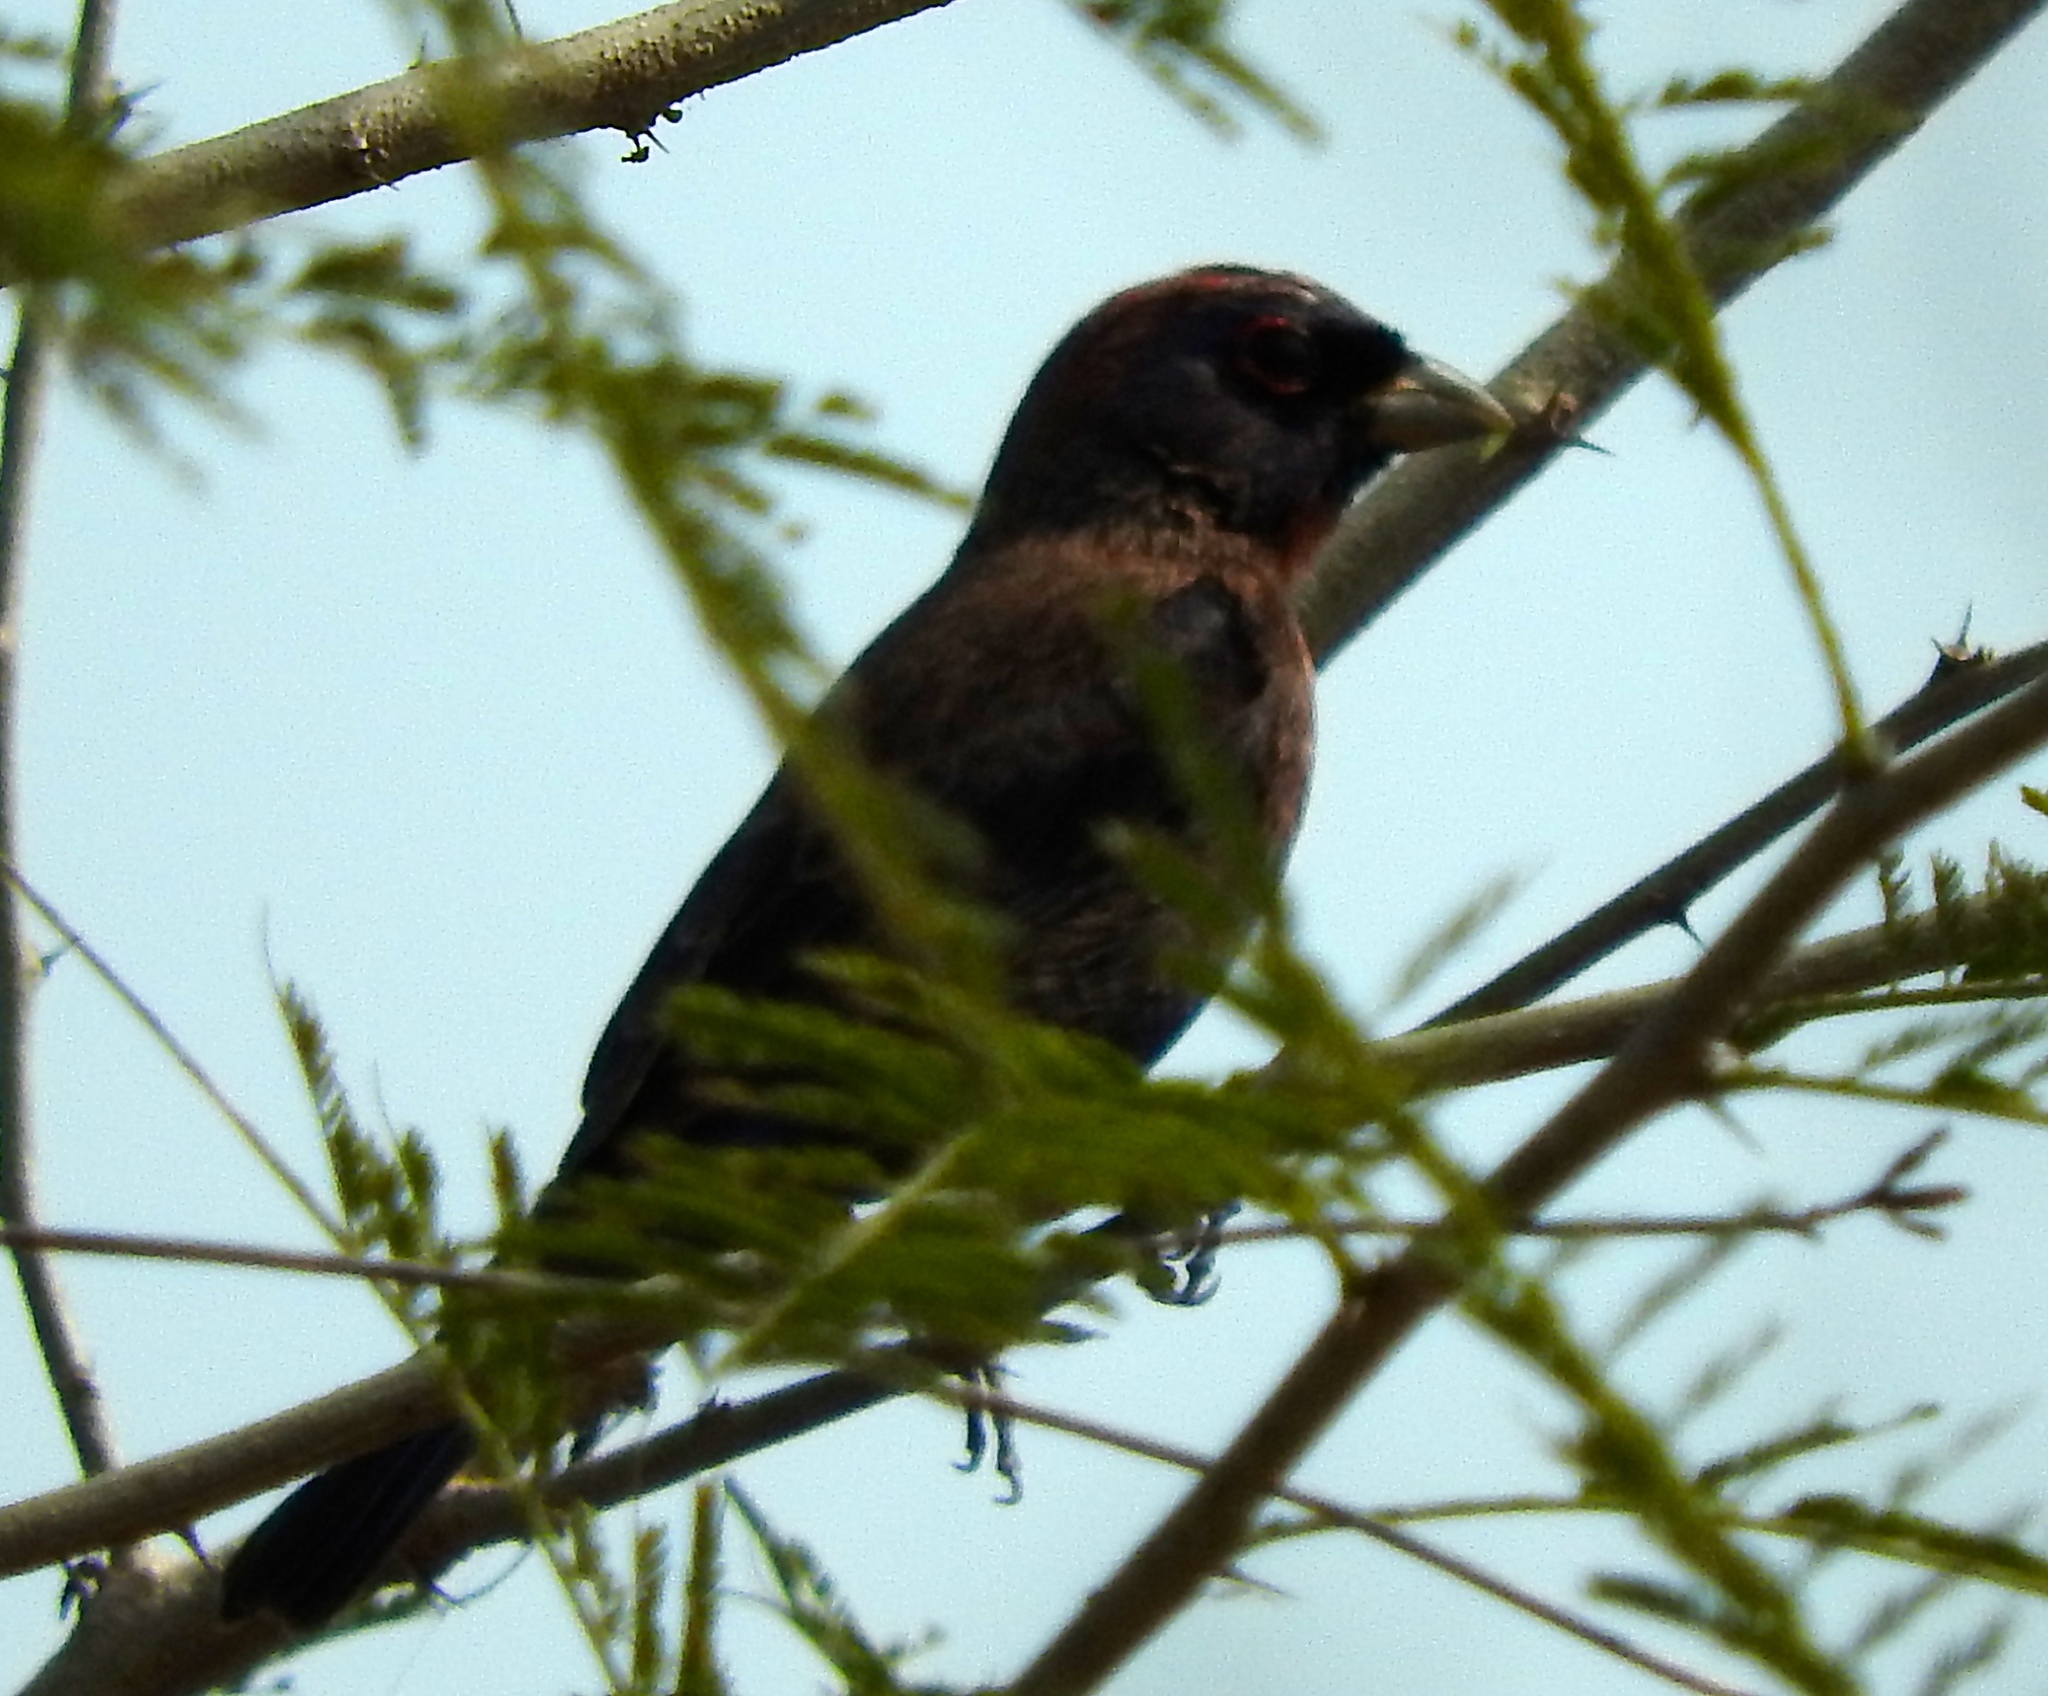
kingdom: Animalia
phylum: Chordata
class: Aves
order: Passeriformes
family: Cardinalidae
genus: Passerina
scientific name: Passerina versicolor
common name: Varied bunting
